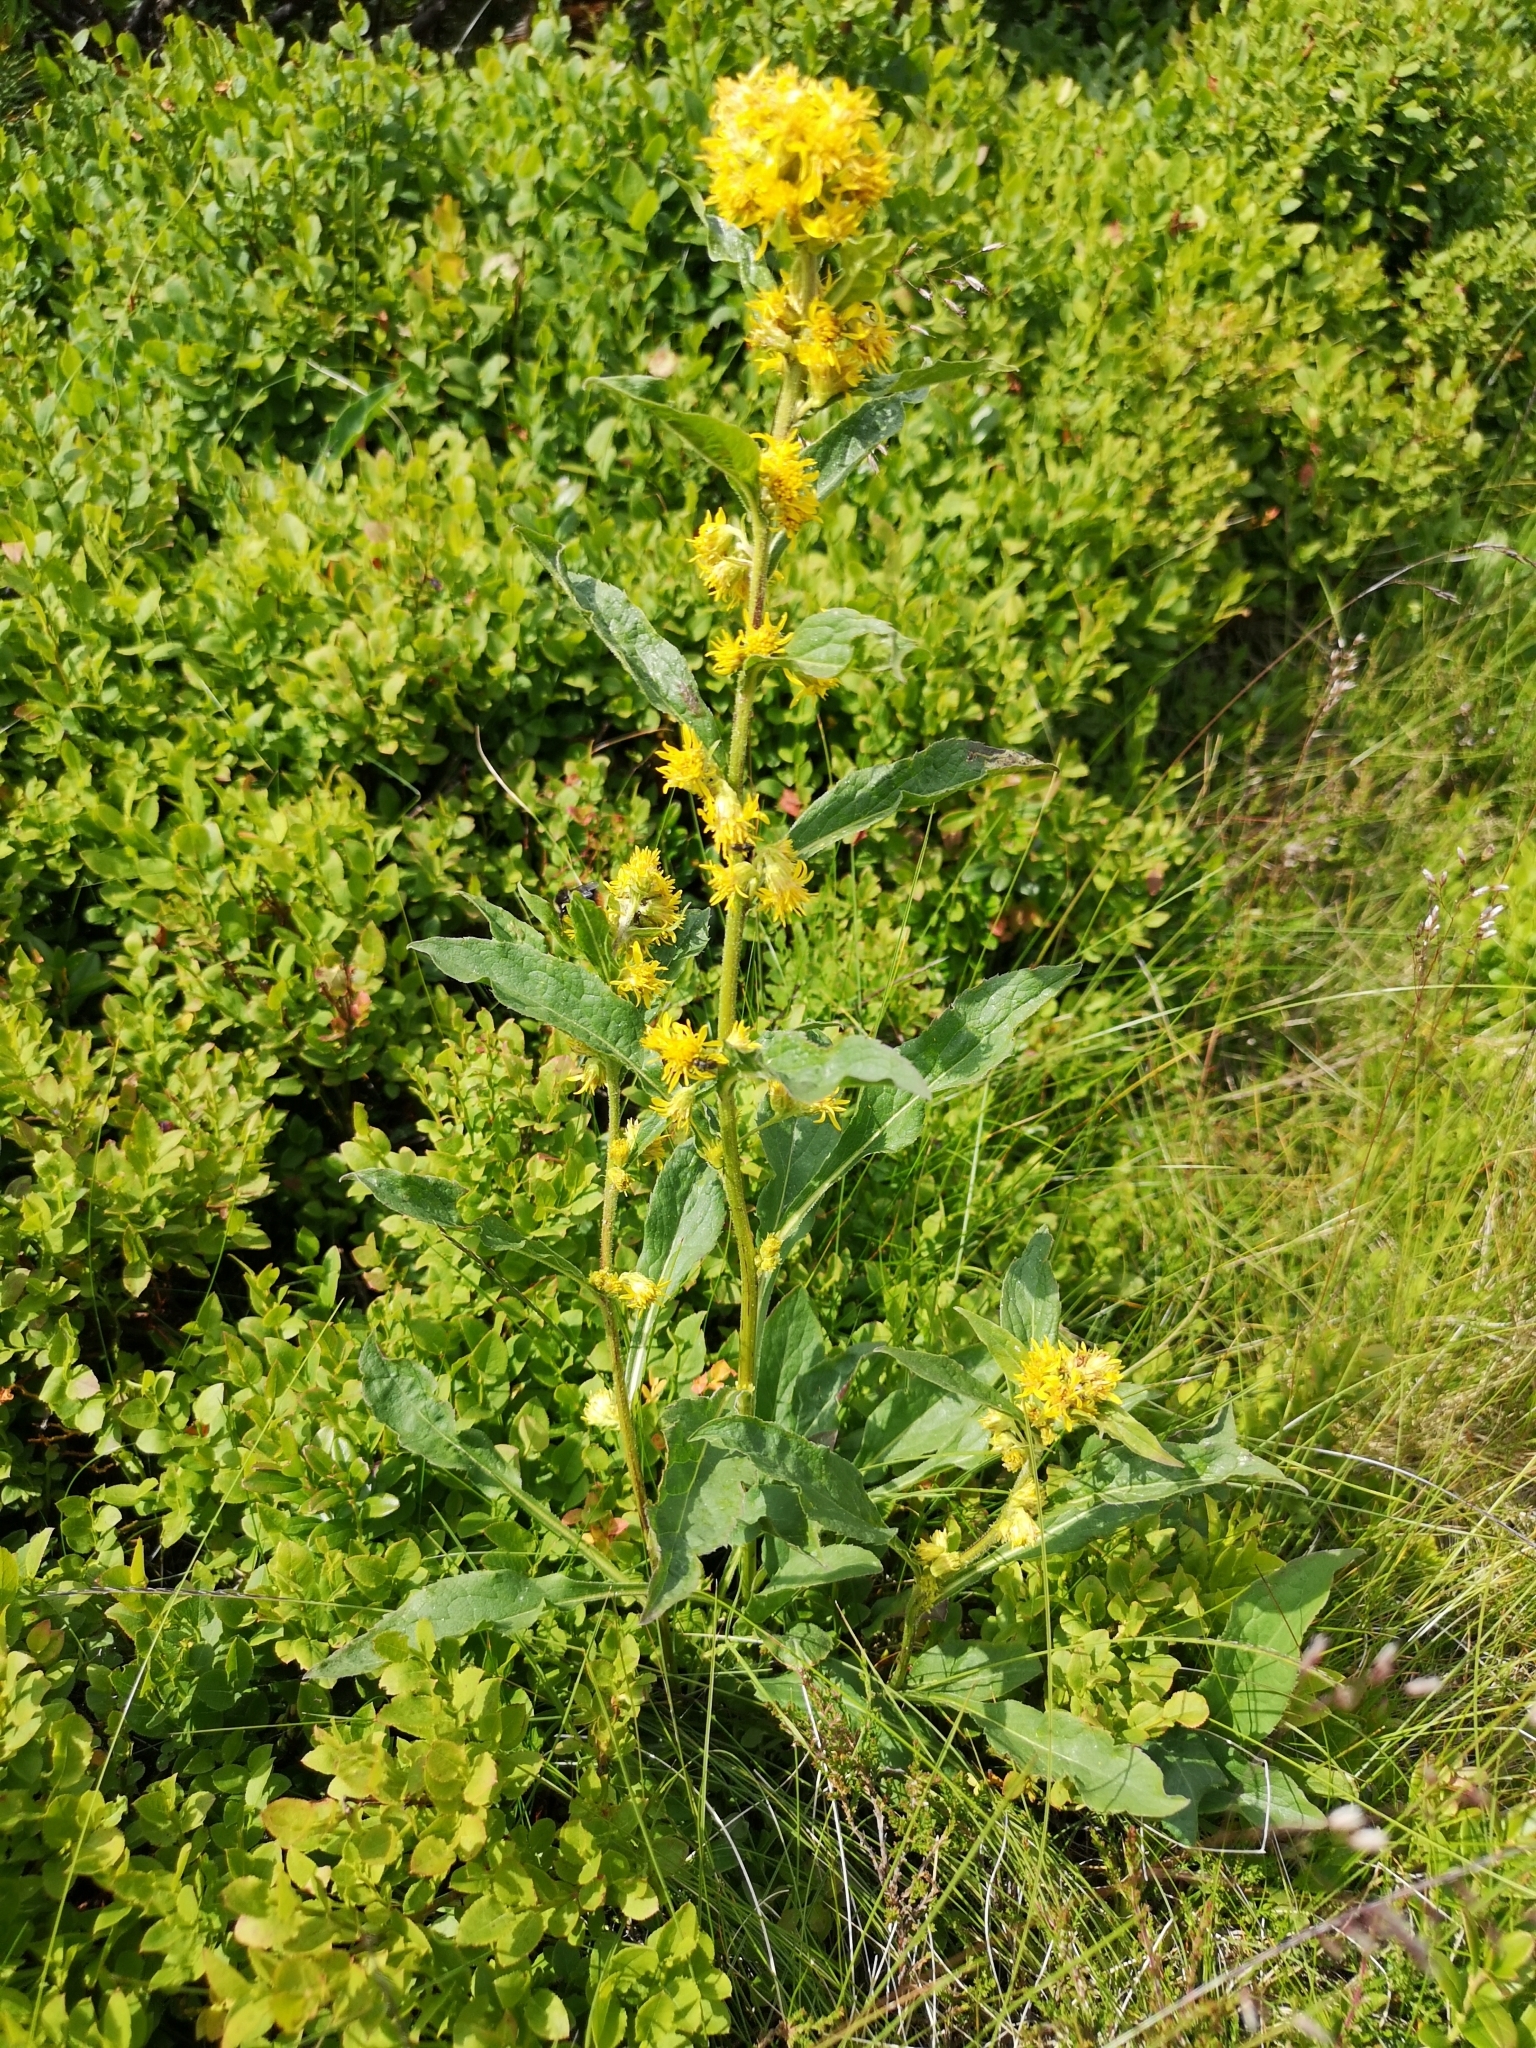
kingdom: Plantae
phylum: Tracheophyta
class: Magnoliopsida
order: Asterales
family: Asteraceae
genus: Solidago
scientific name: Solidago virgaurea
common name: Goldenrod
